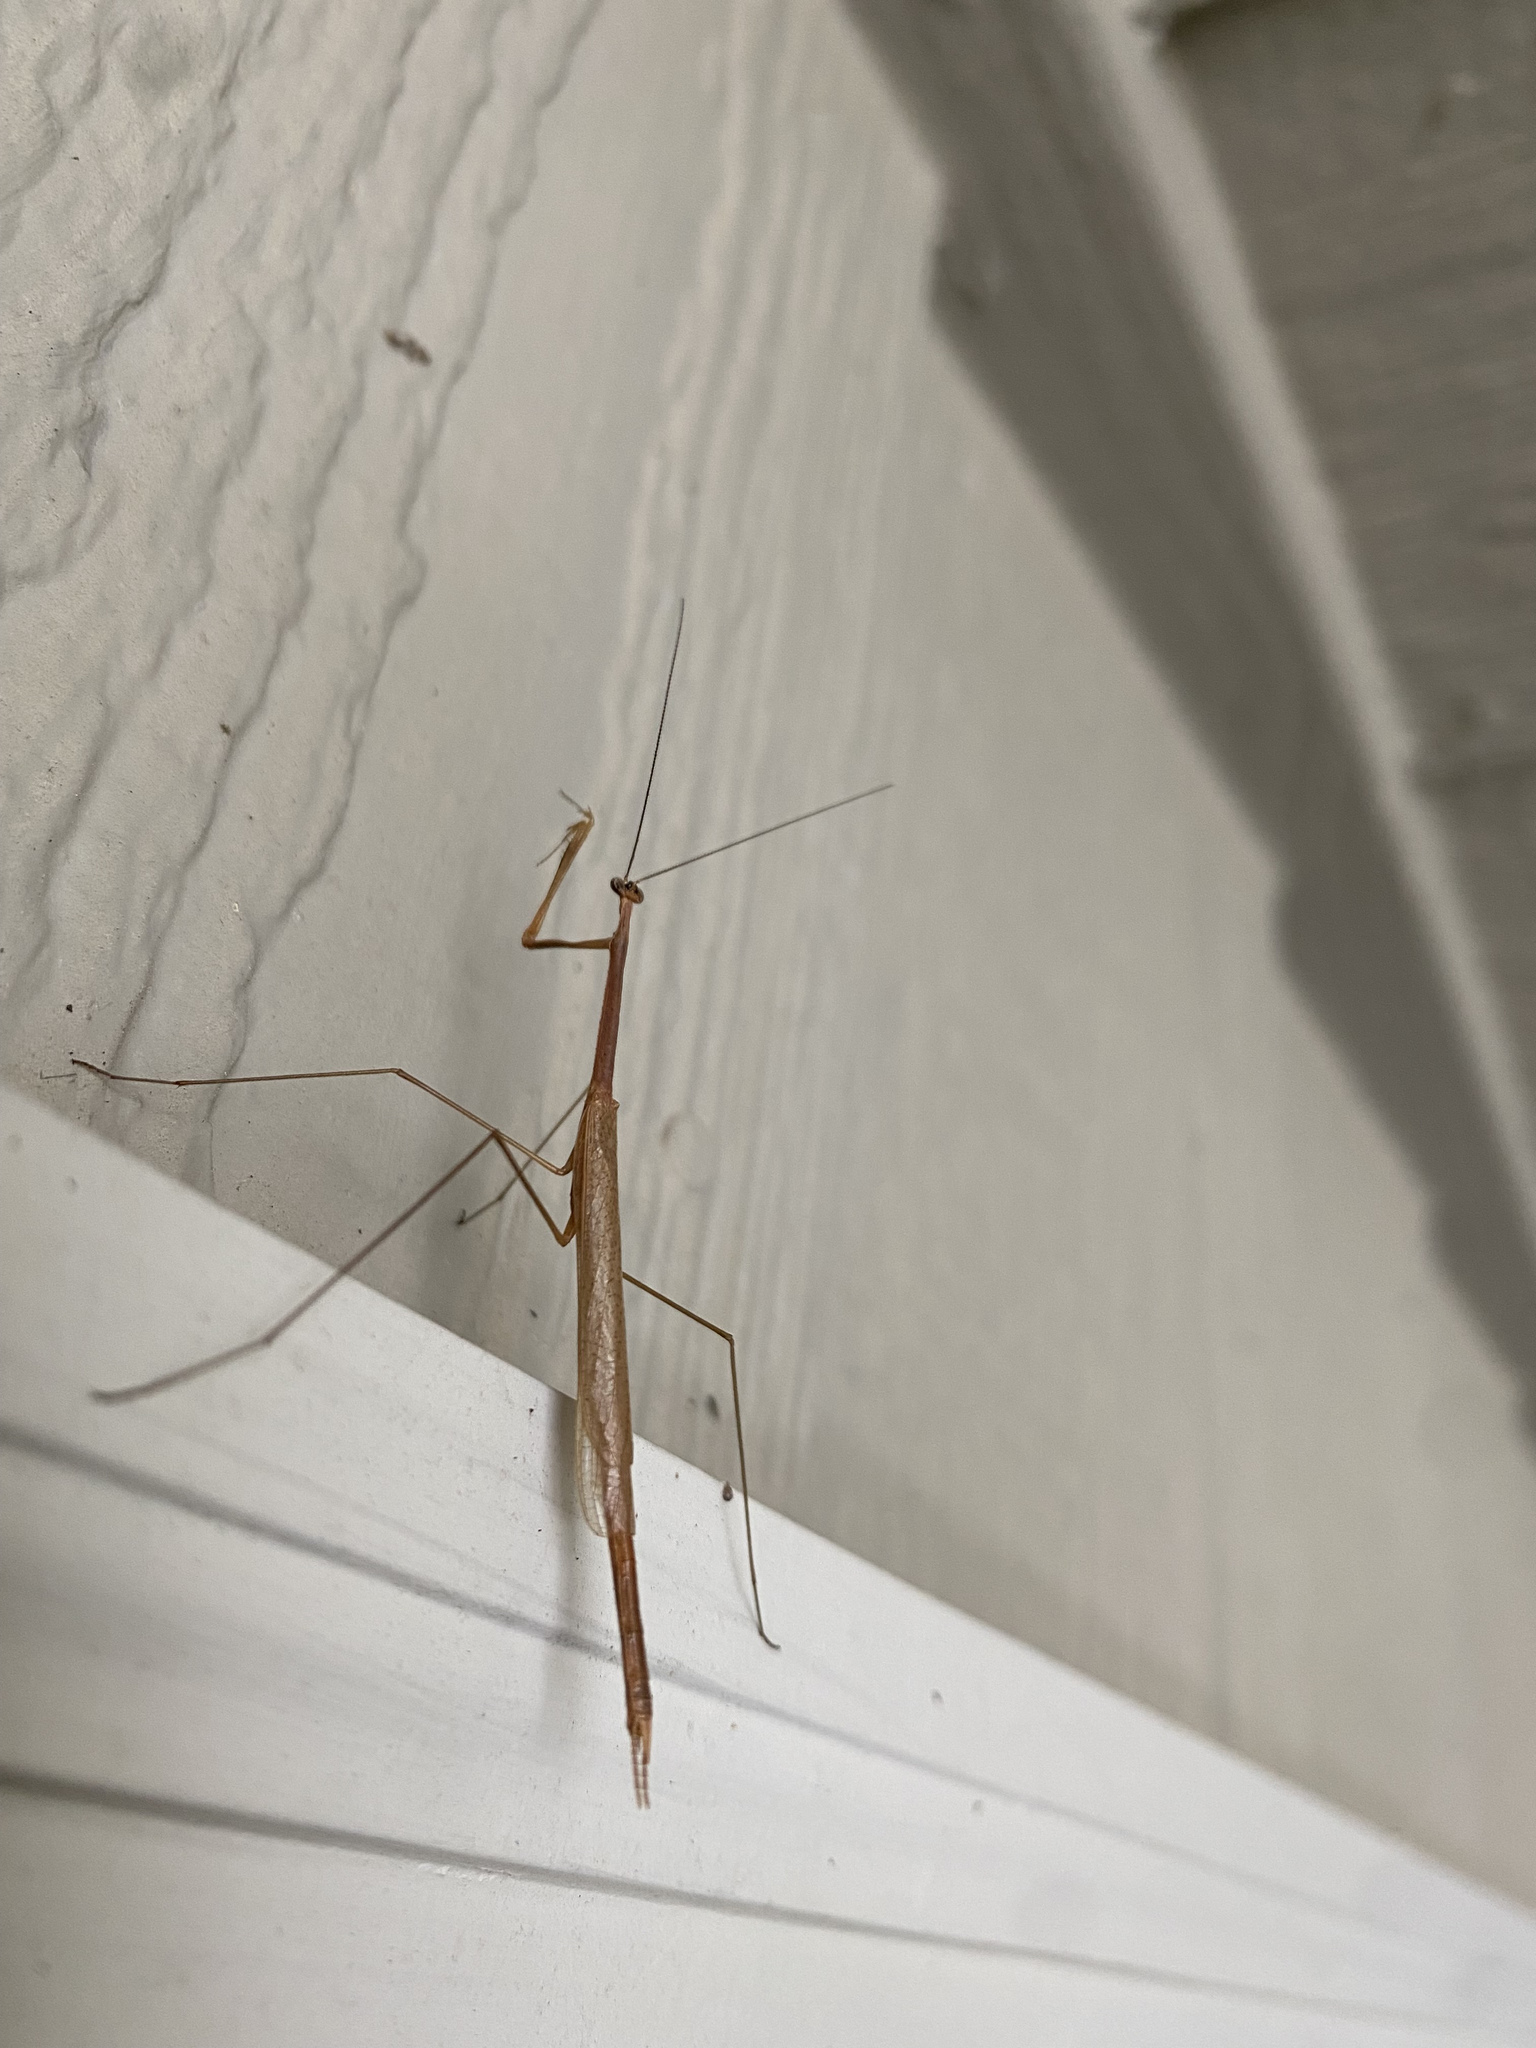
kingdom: Animalia
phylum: Arthropoda
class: Insecta
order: Mantodea
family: Thespidae
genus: Thesprotia
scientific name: Thesprotia graminis
